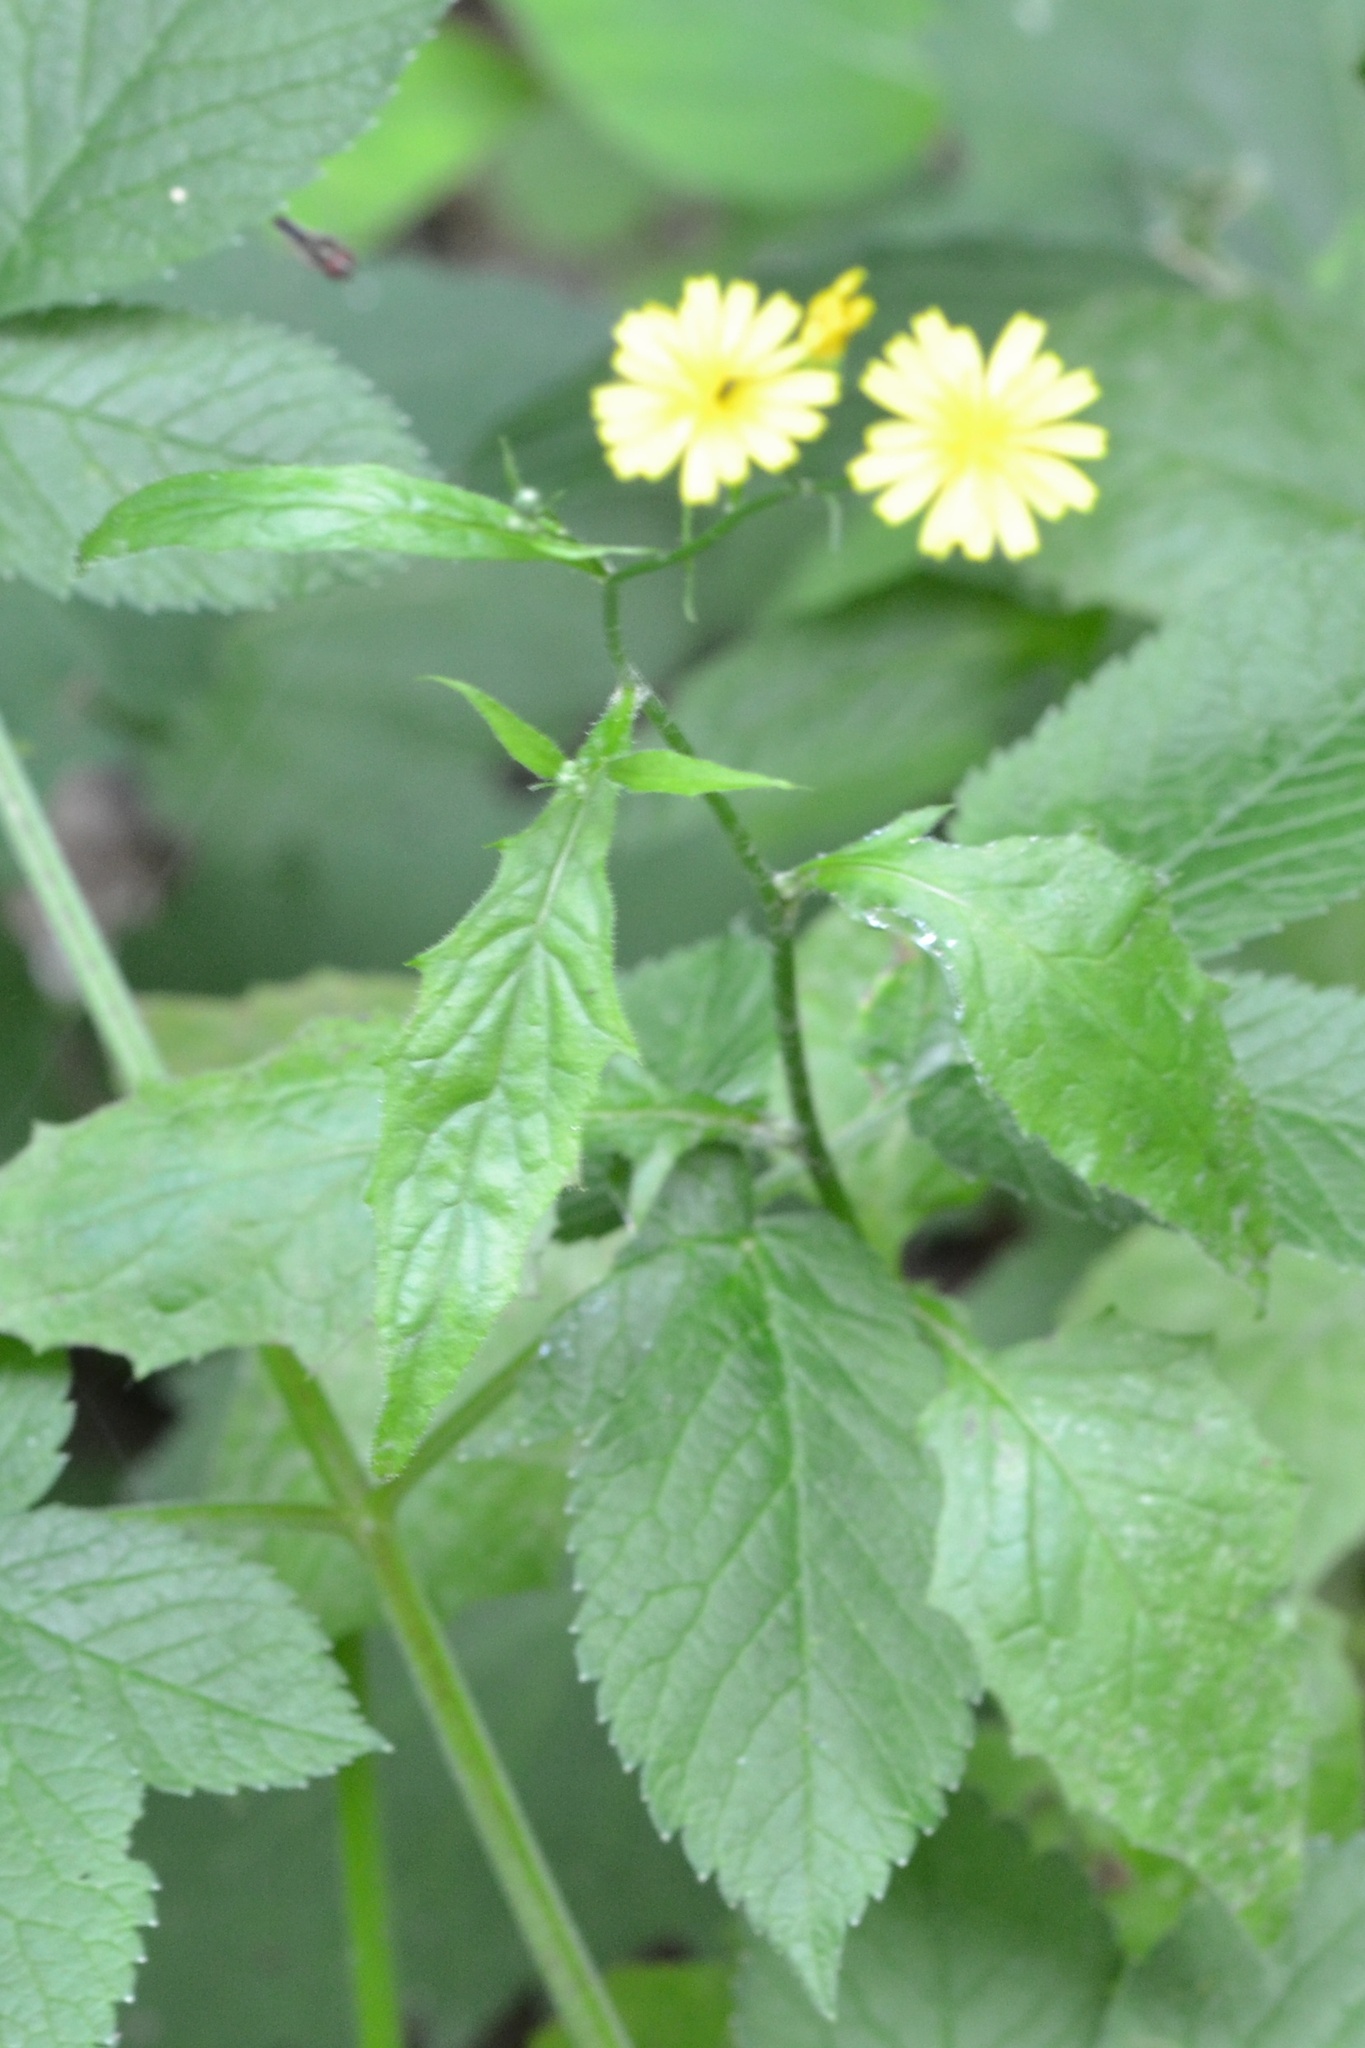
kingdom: Plantae
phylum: Tracheophyta
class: Magnoliopsida
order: Asterales
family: Asteraceae
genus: Lapsana
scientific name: Lapsana communis
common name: Nipplewort
